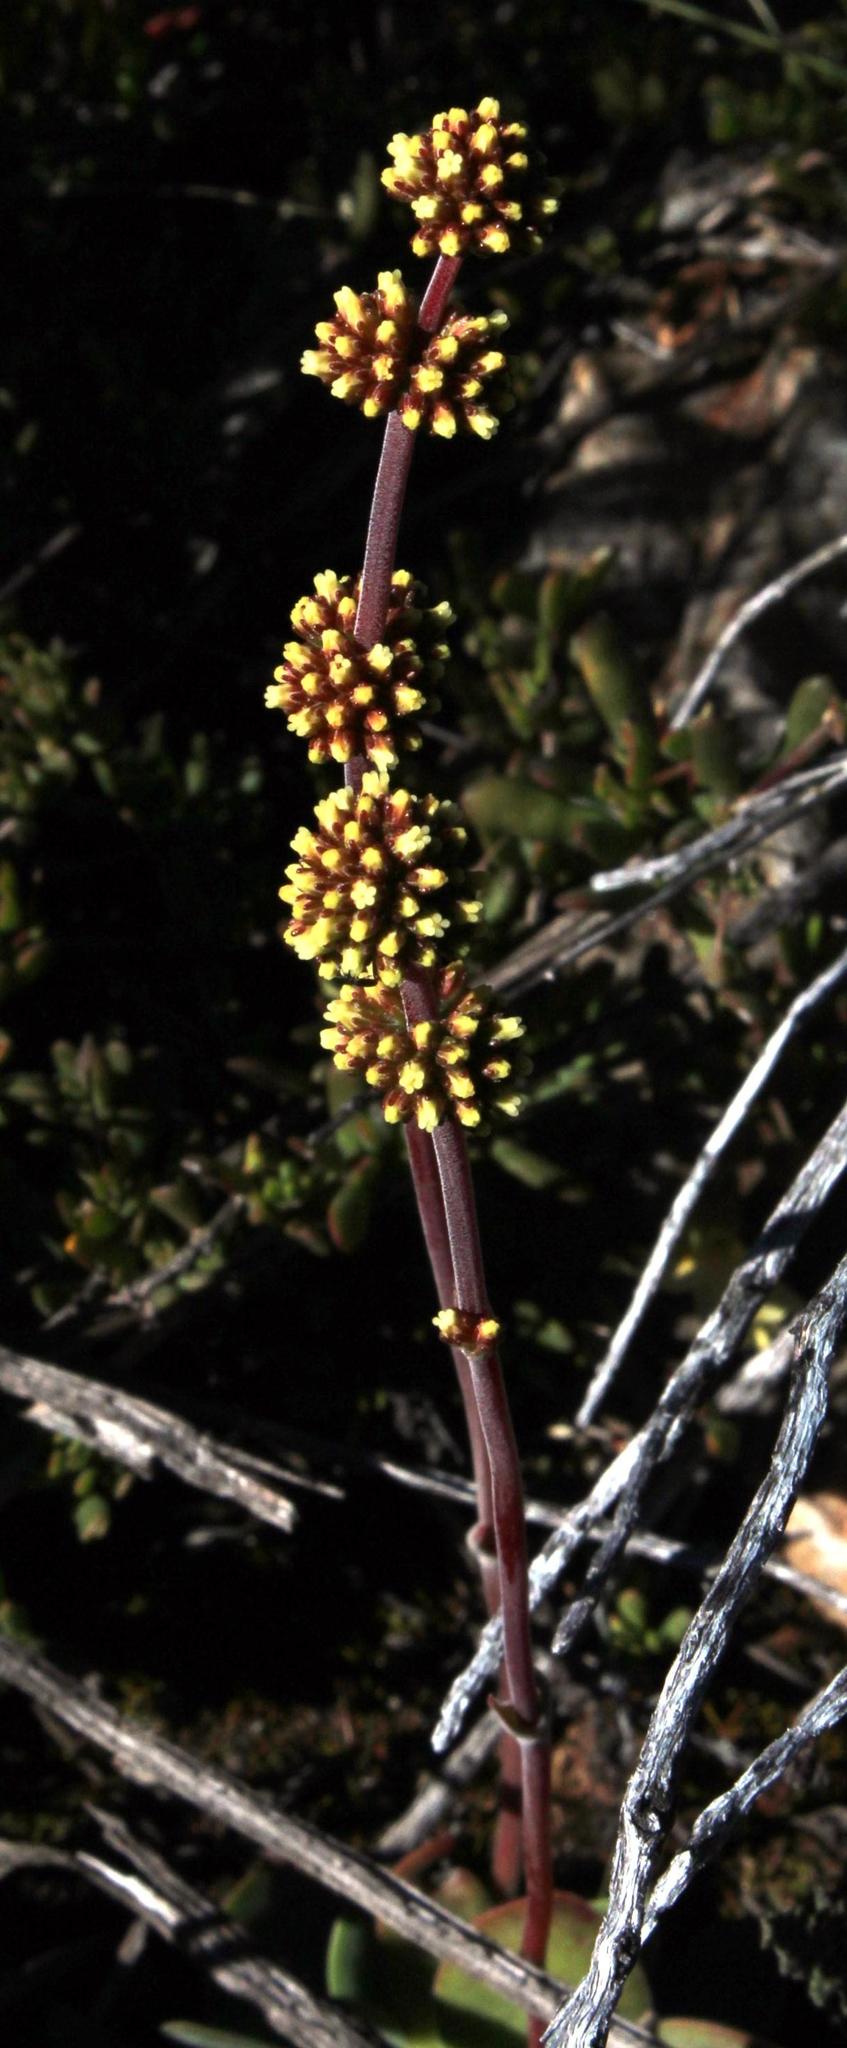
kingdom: Plantae
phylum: Tracheophyta
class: Magnoliopsida
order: Saxifragales
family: Crassulaceae
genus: Crassula
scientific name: Crassula nudicaulis
